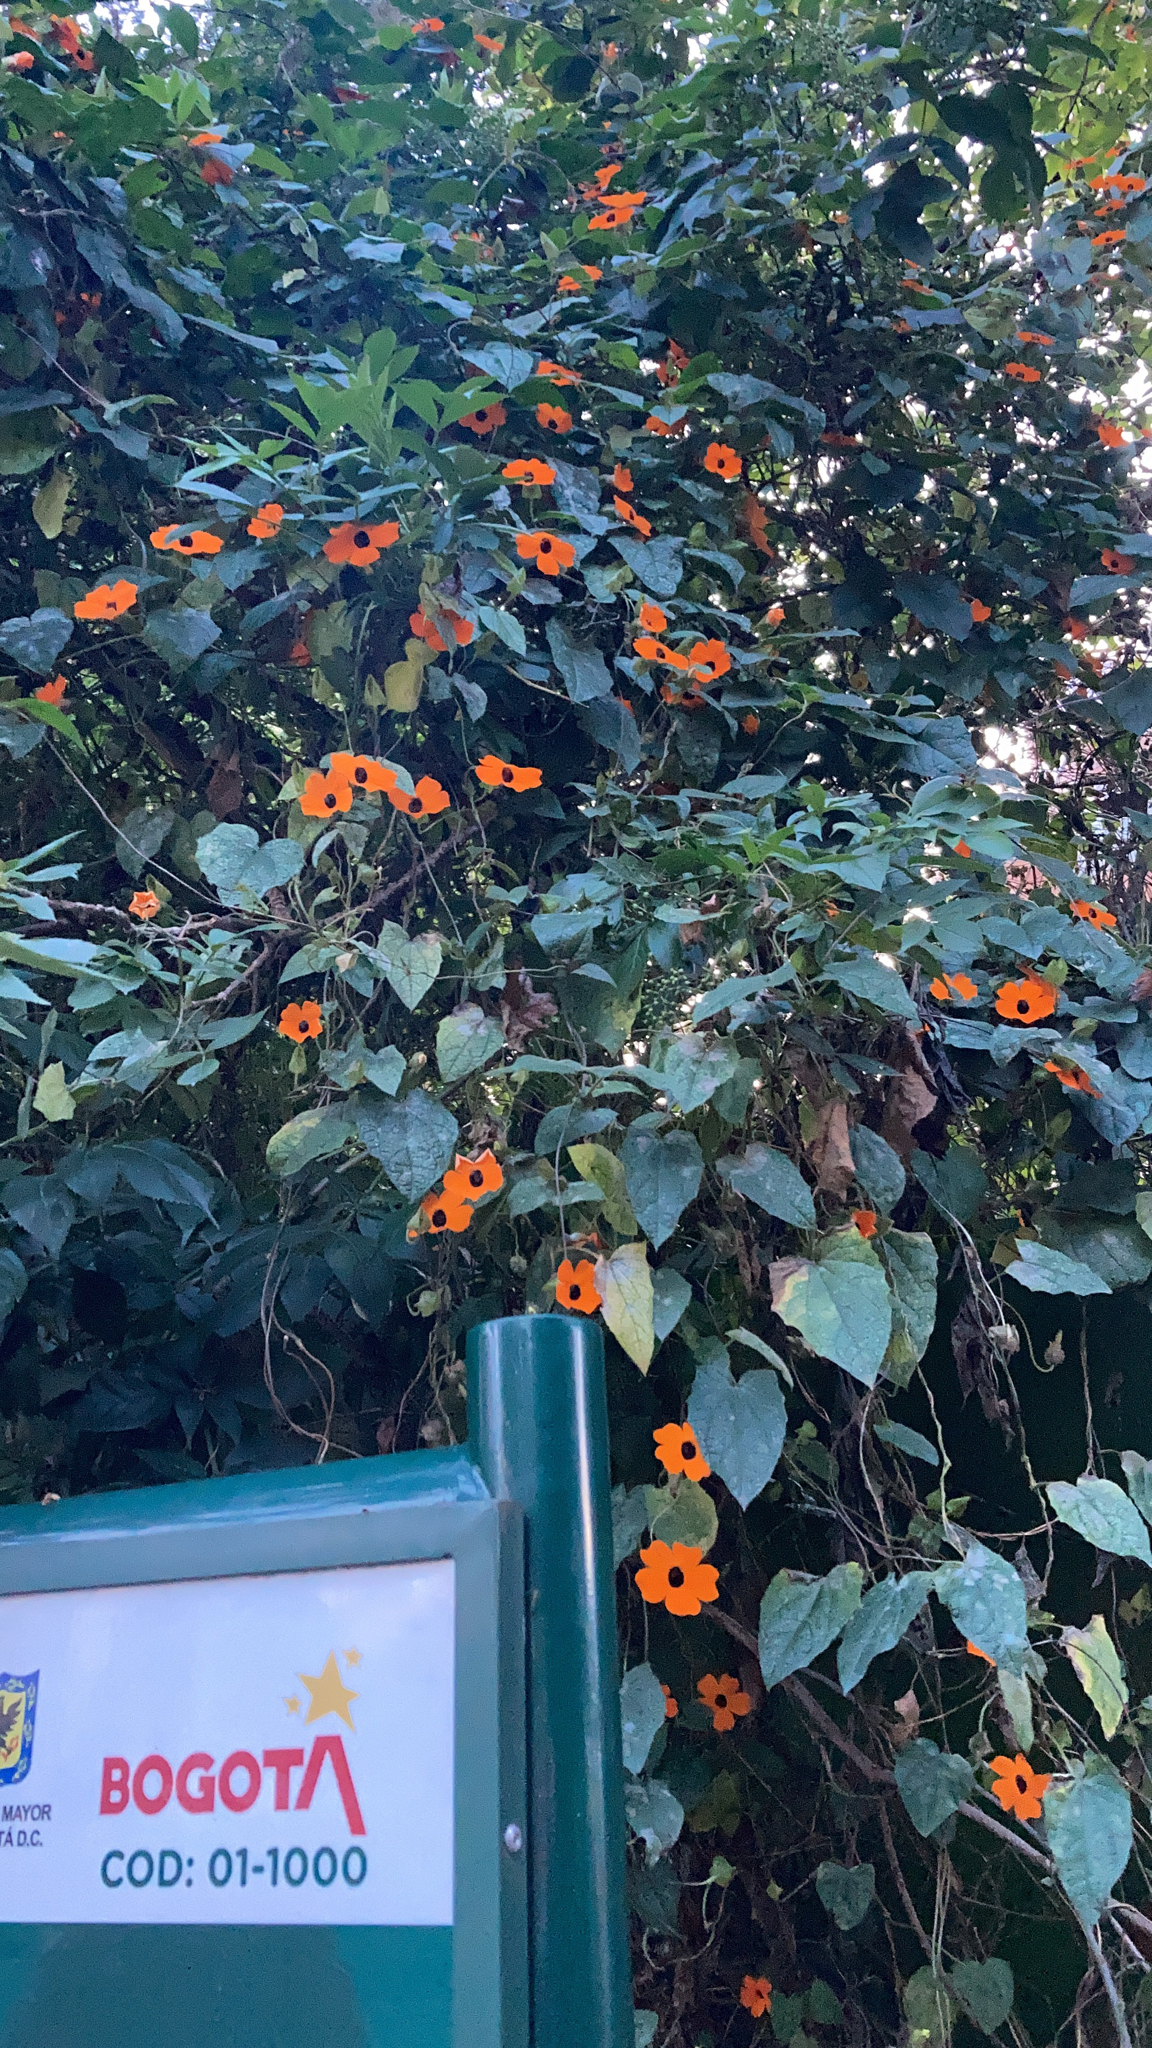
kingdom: Plantae
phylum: Tracheophyta
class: Magnoliopsida
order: Lamiales
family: Acanthaceae
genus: Thunbergia
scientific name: Thunbergia alata
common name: Blackeyed susan vine
